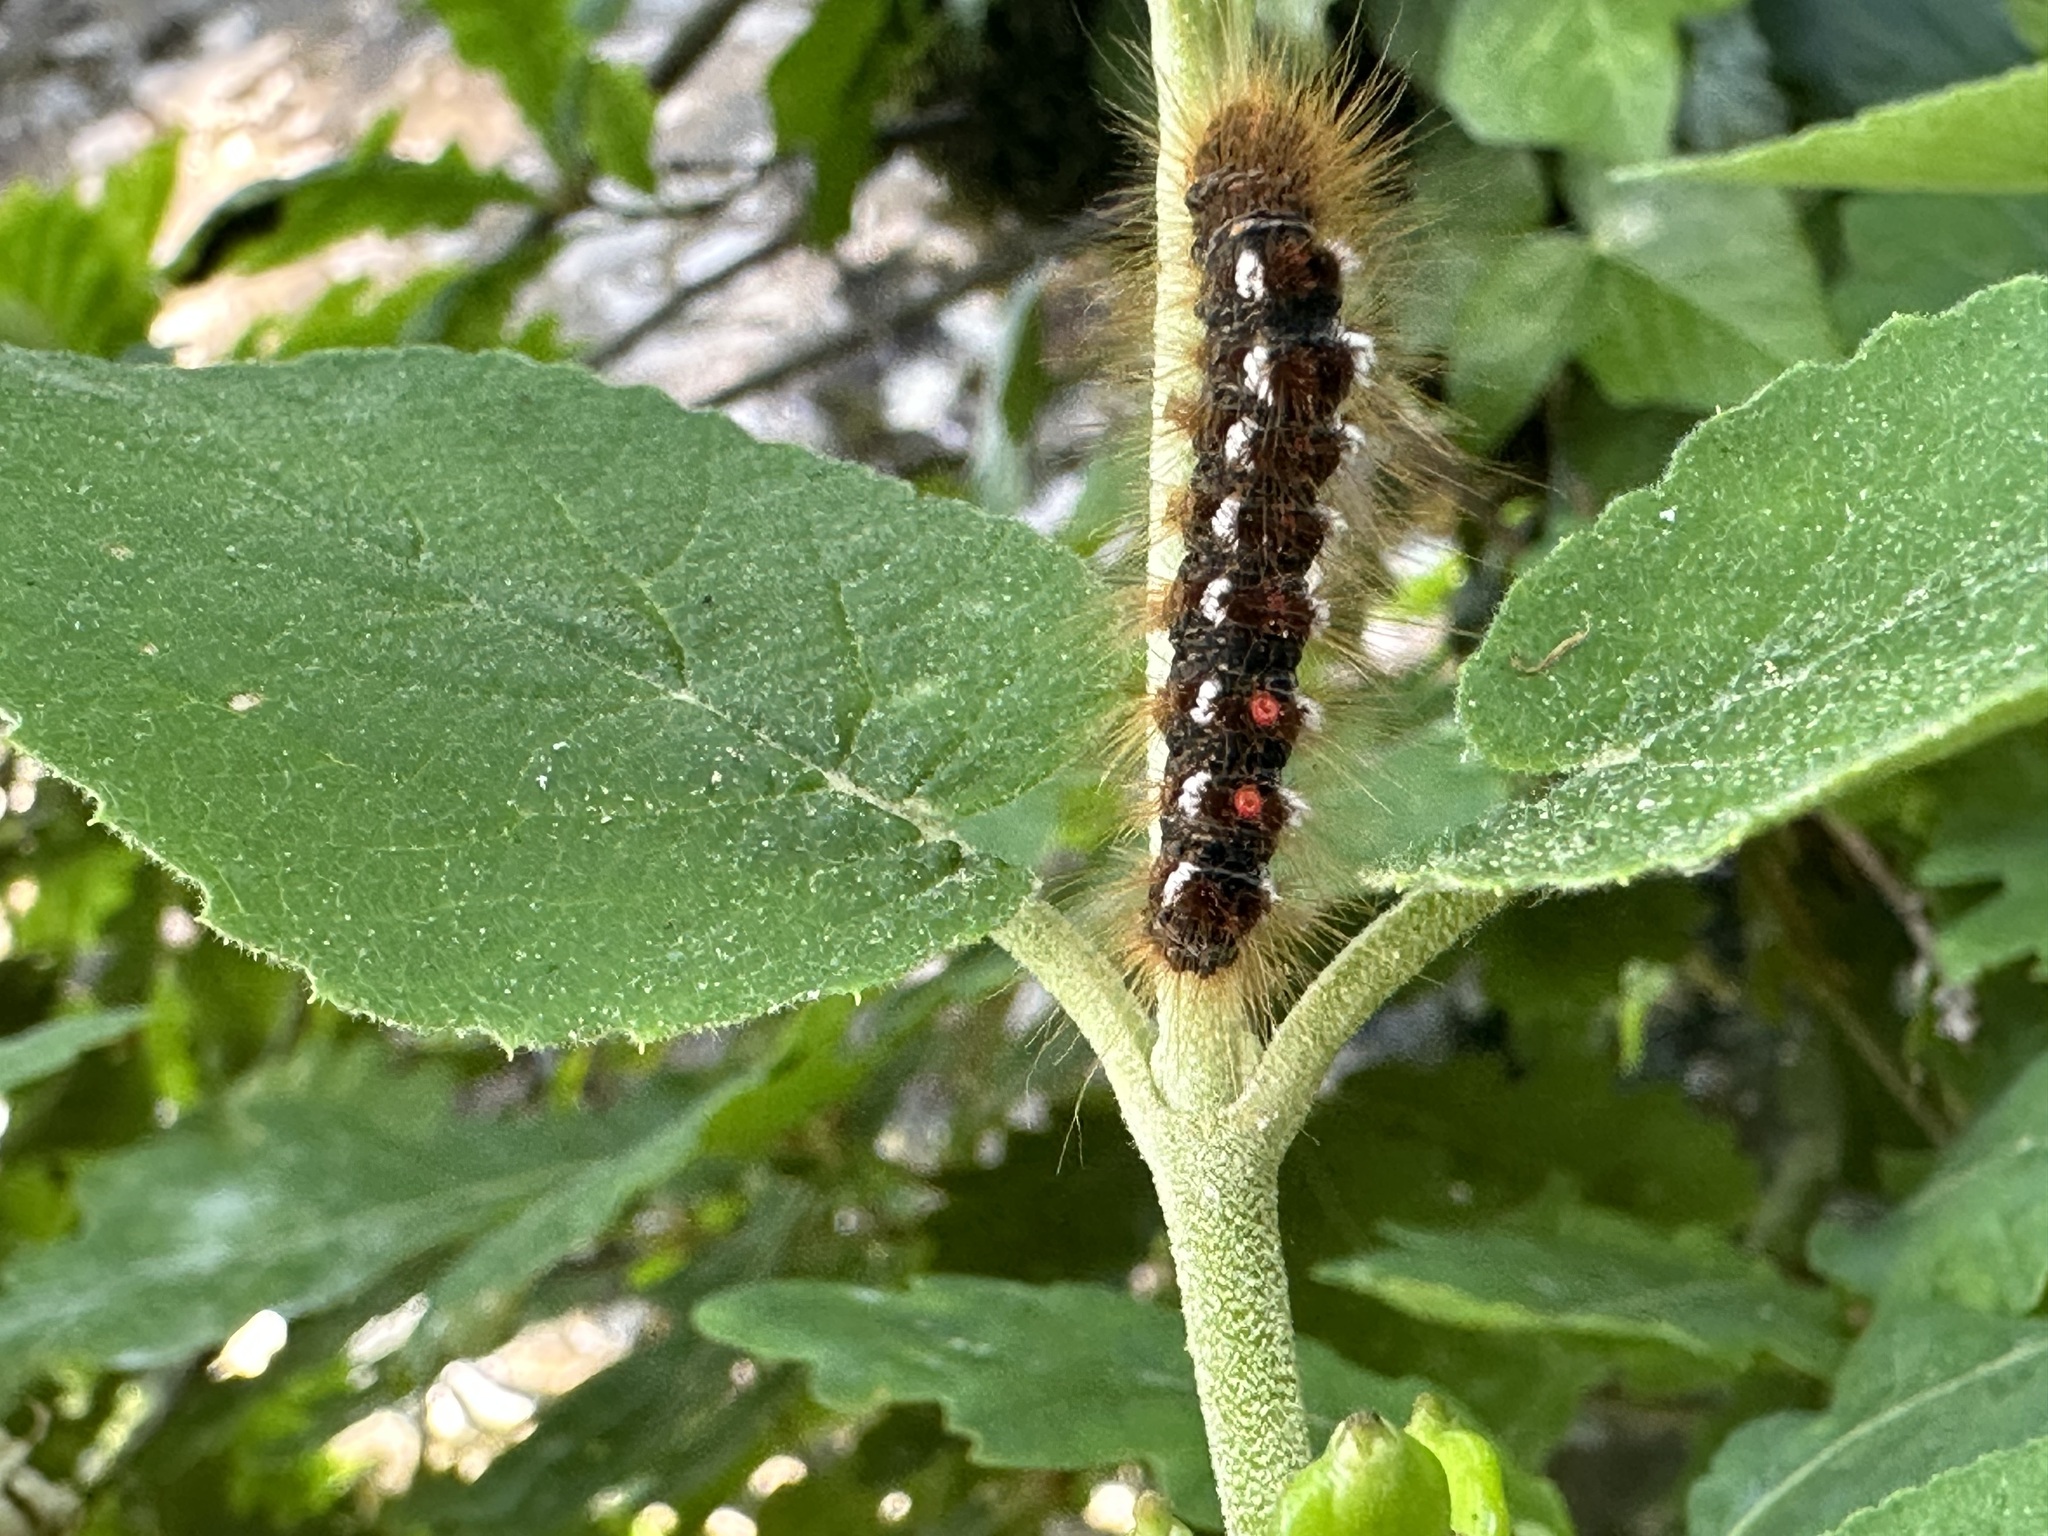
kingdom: Animalia
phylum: Arthropoda
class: Insecta
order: Lepidoptera
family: Erebidae
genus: Euproctis
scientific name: Euproctis chrysorrhoea
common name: Brown-tail
